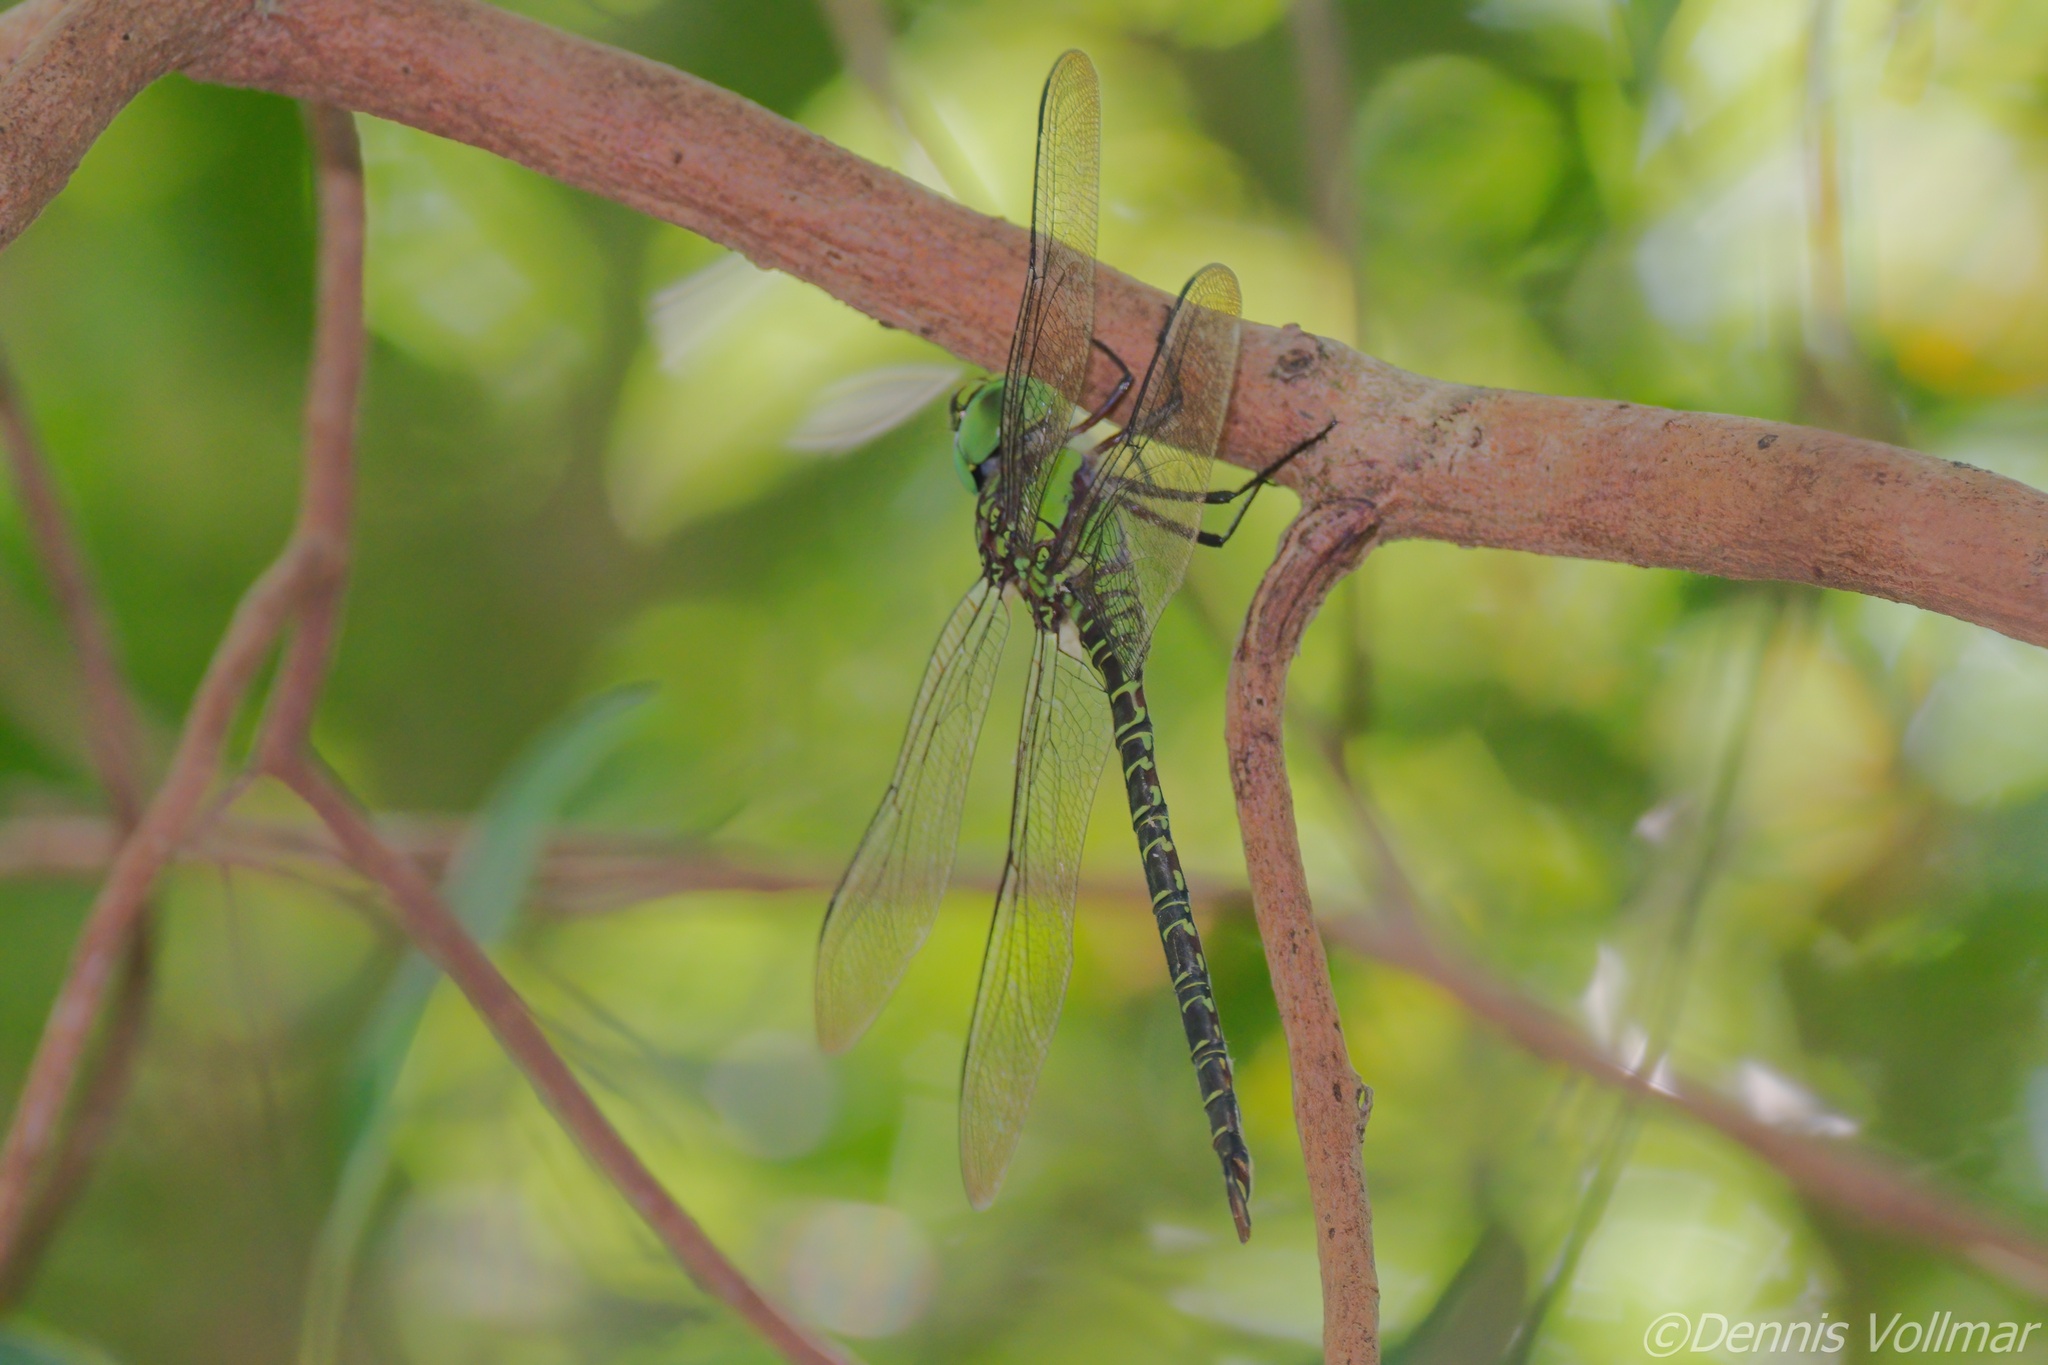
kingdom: Animalia
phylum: Arthropoda
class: Insecta
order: Odonata
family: Aeshnidae
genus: Coryphaeschna
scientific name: Coryphaeschna ingens
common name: Regal darner
